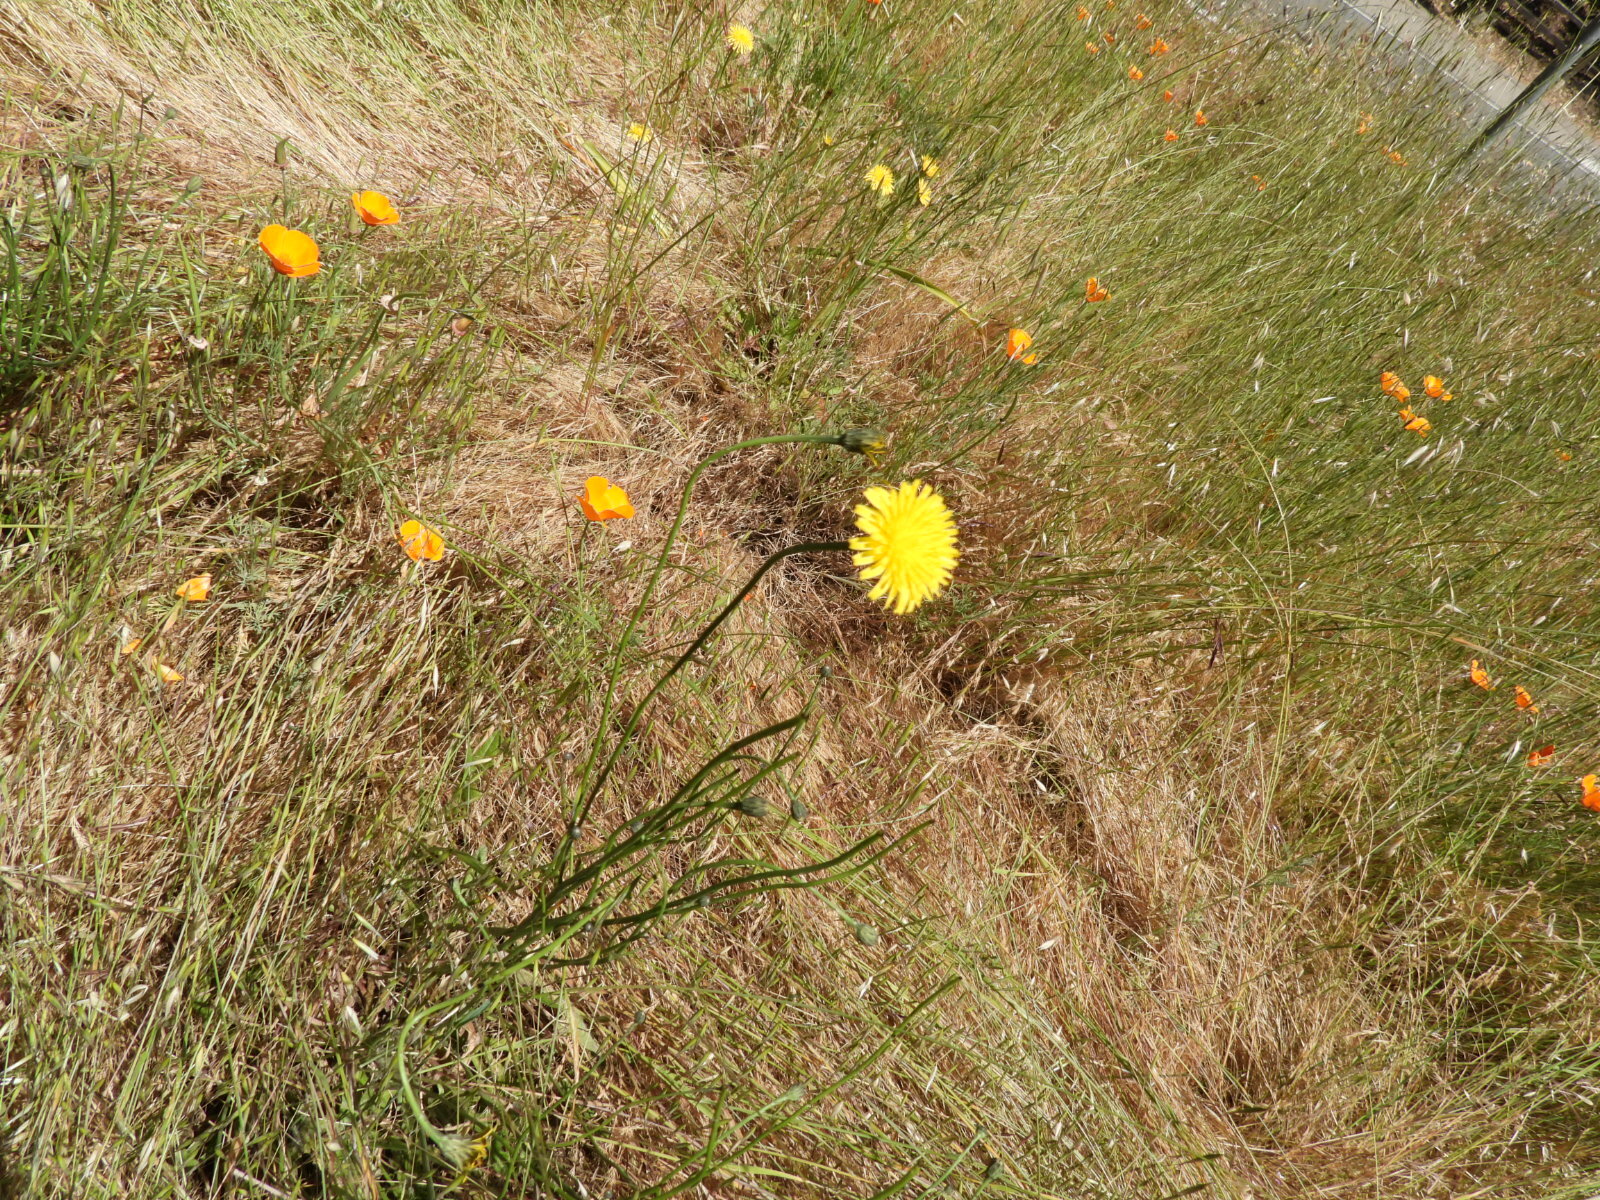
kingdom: Plantae
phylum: Tracheophyta
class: Magnoliopsida
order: Asterales
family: Asteraceae
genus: Hypochaeris
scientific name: Hypochaeris radicata
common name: Flatweed
